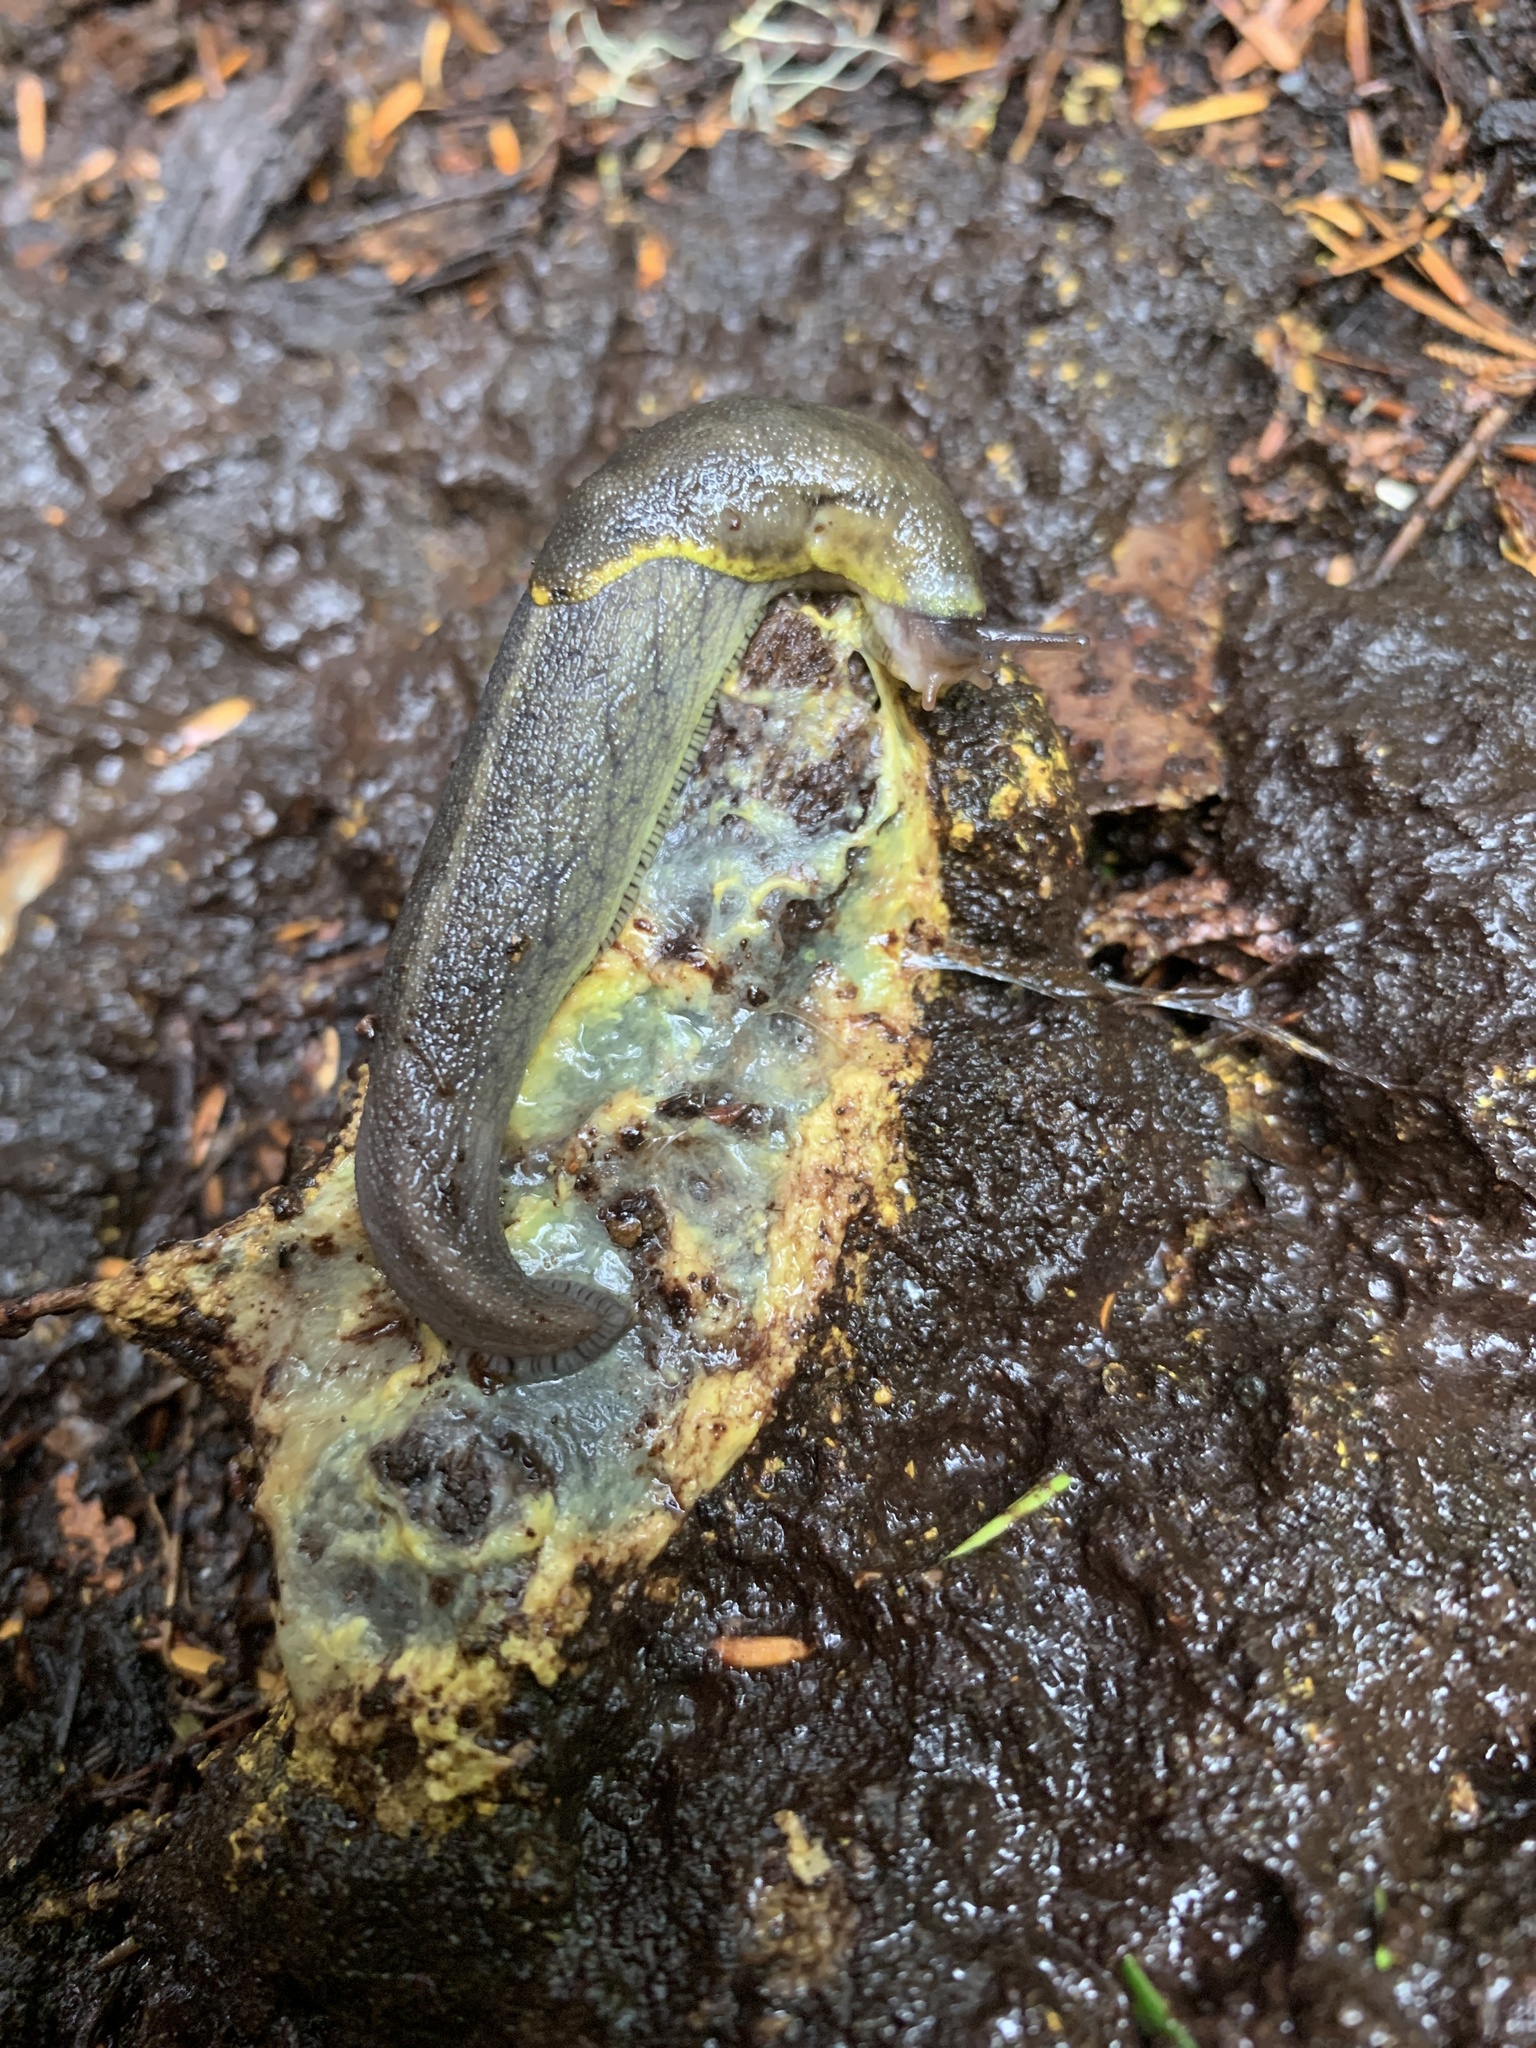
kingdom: Animalia
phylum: Mollusca
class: Gastropoda
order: Stylommatophora
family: Ariolimacidae
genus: Prophysaon
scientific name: Prophysaon foliolatum
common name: Yellow-bordered taildropper
